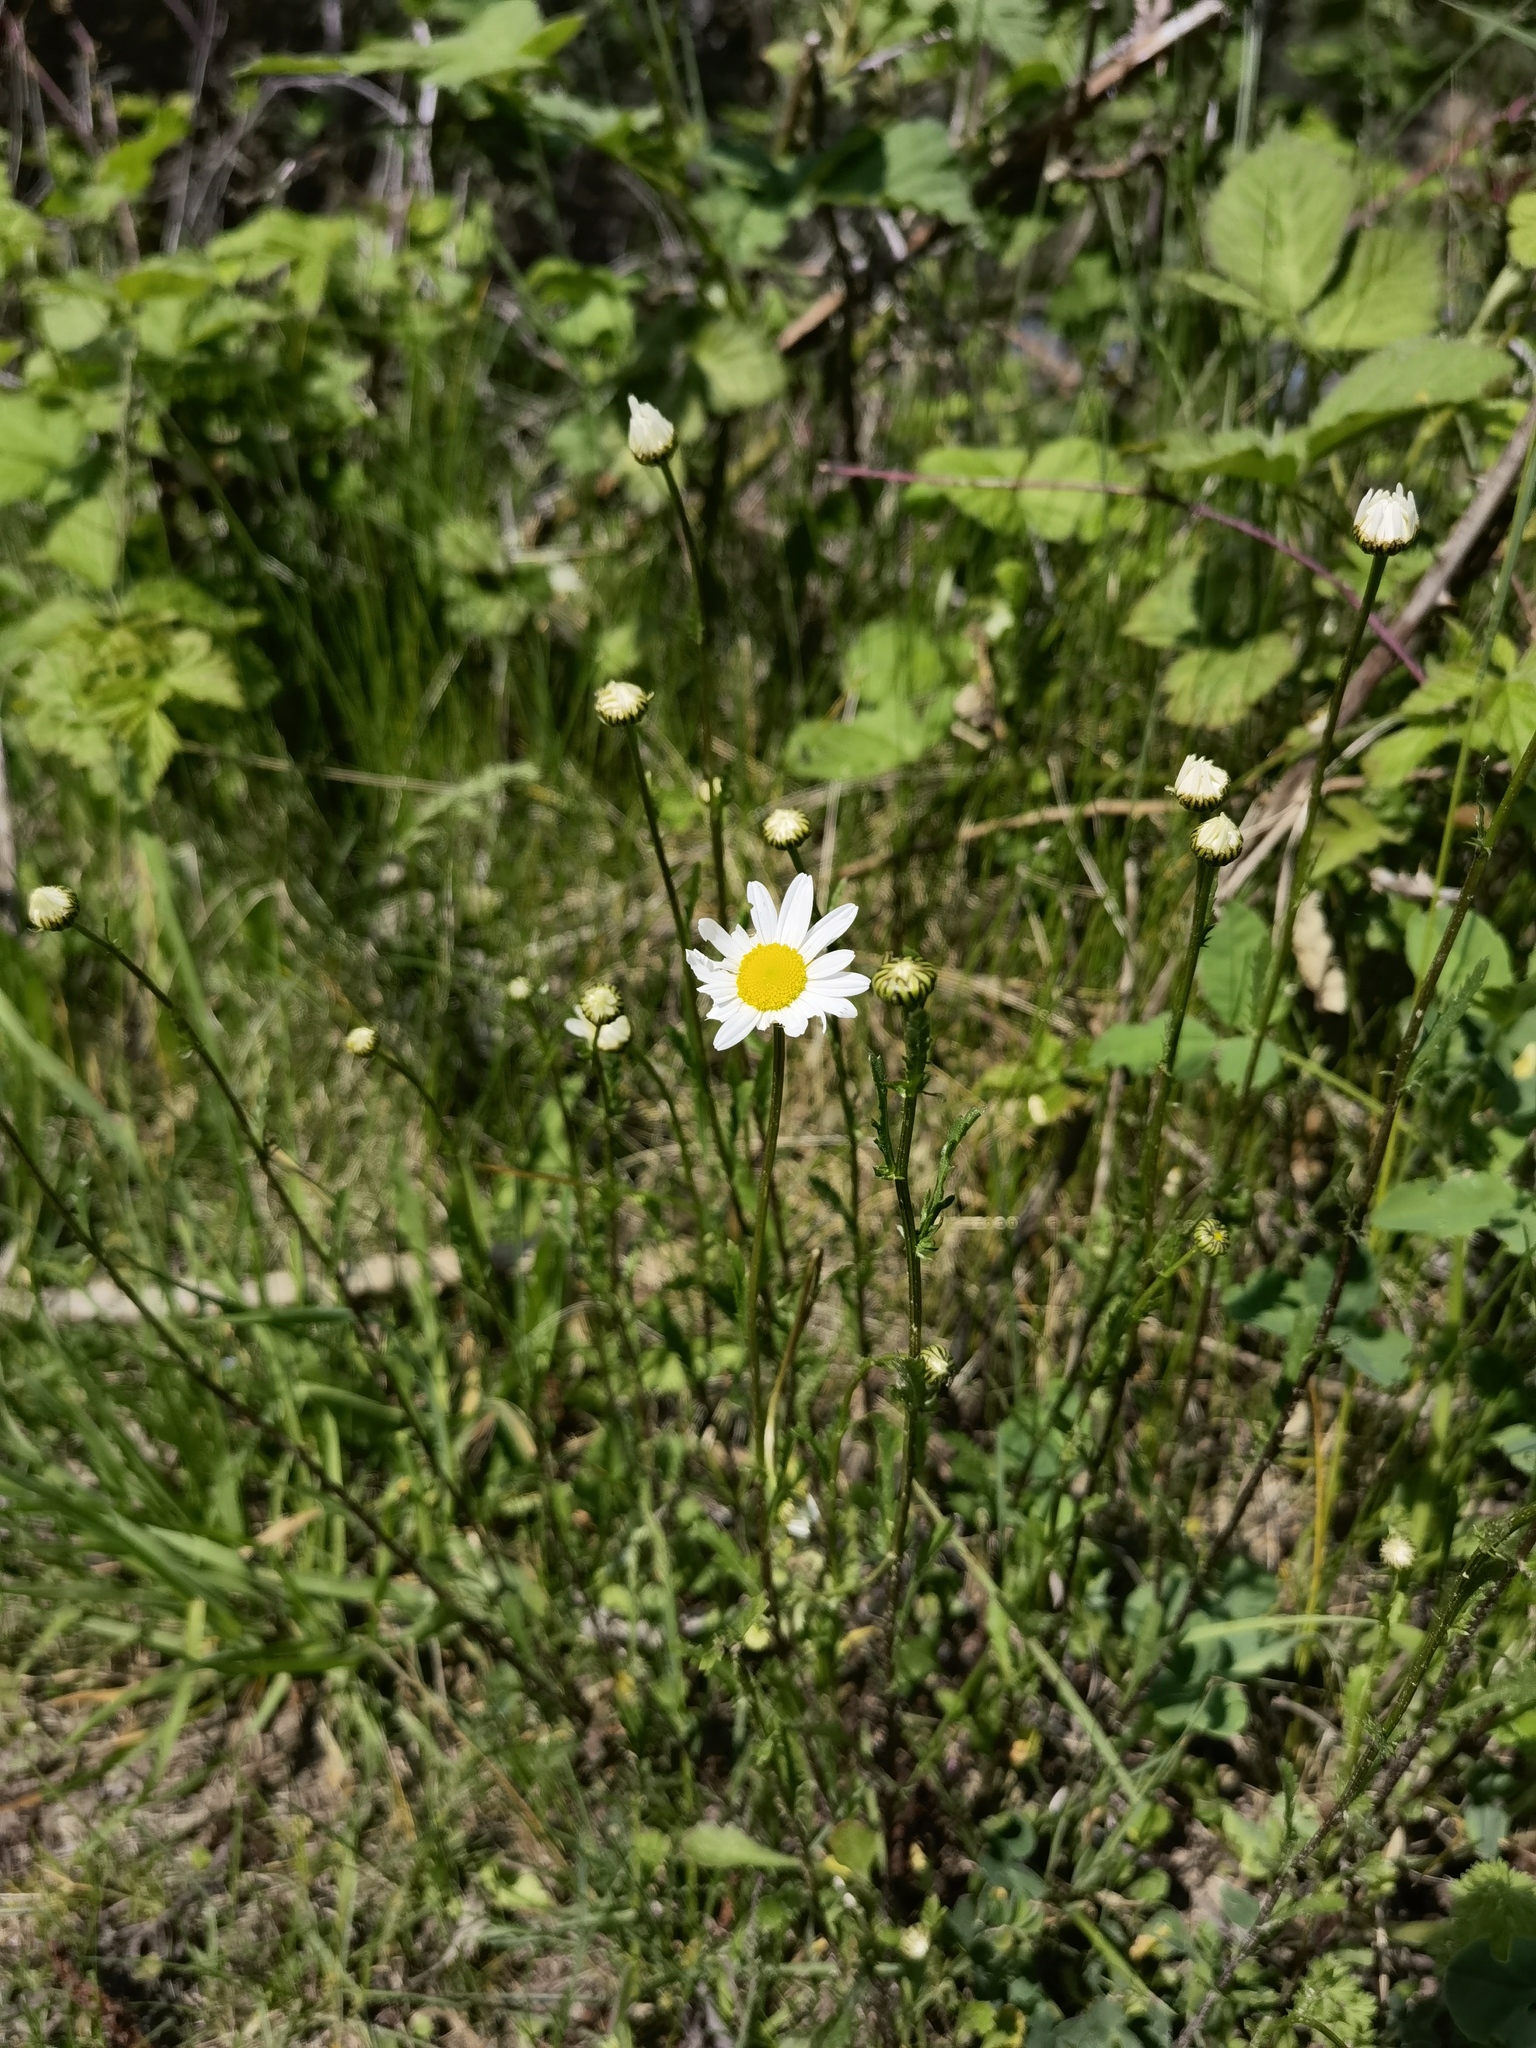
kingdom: Plantae
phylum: Tracheophyta
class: Magnoliopsida
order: Asterales
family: Asteraceae
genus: Leucanthemum
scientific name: Leucanthemum vulgare
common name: Oxeye daisy
